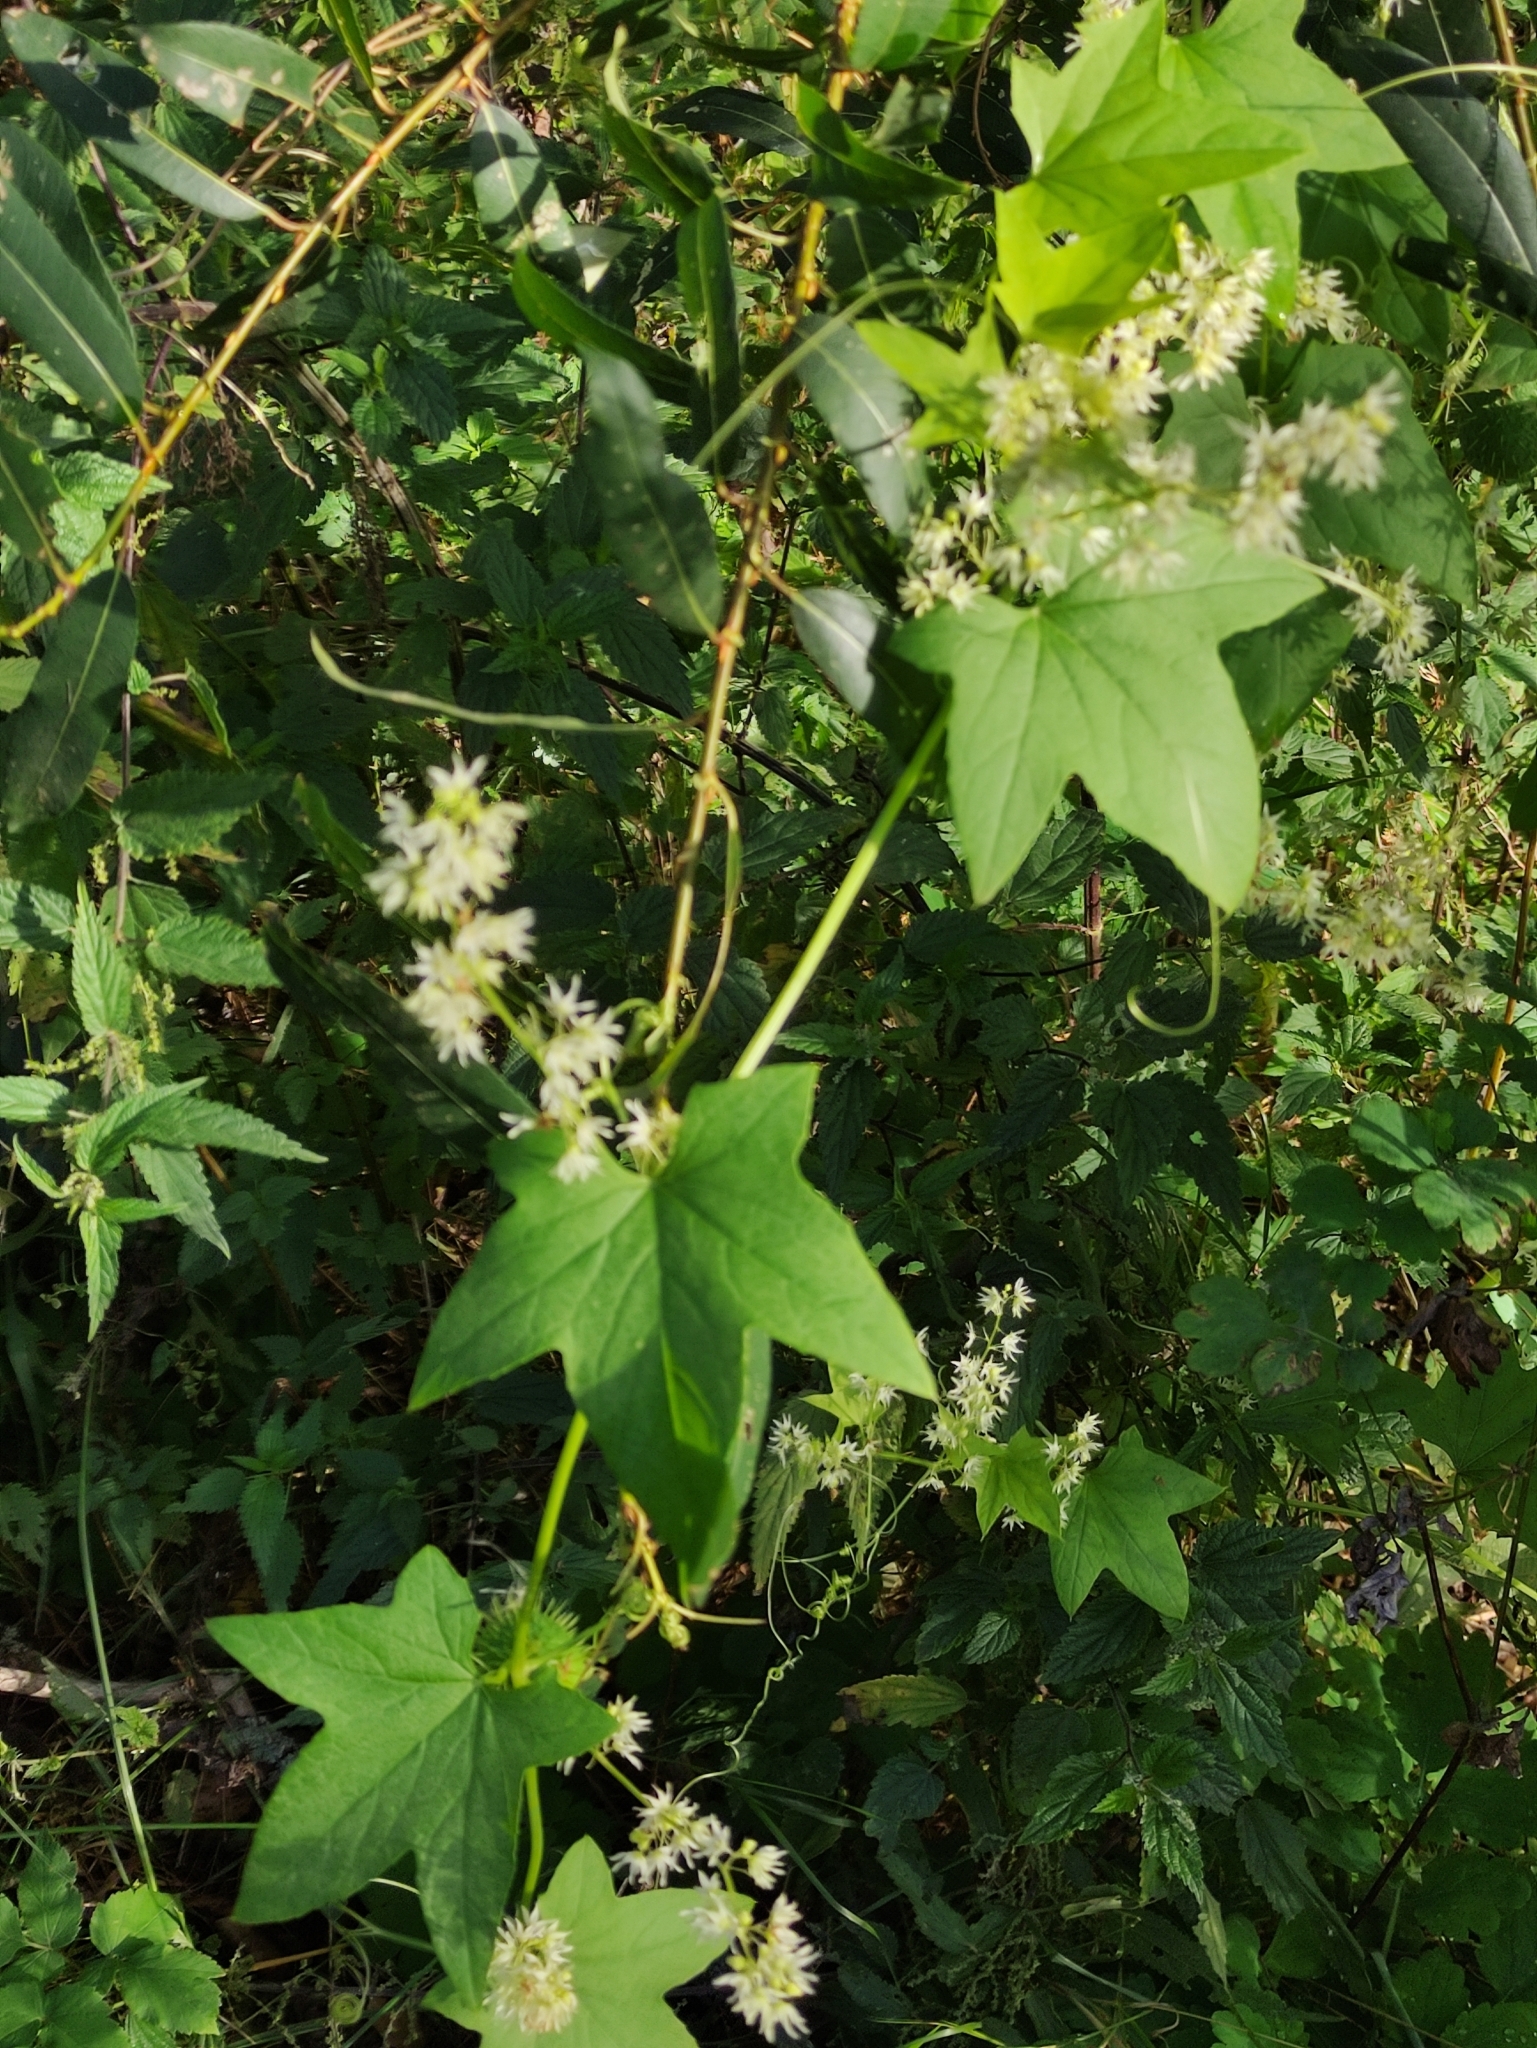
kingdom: Plantae
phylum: Tracheophyta
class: Magnoliopsida
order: Cucurbitales
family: Cucurbitaceae
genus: Echinocystis
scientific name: Echinocystis lobata
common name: Wild cucumber
